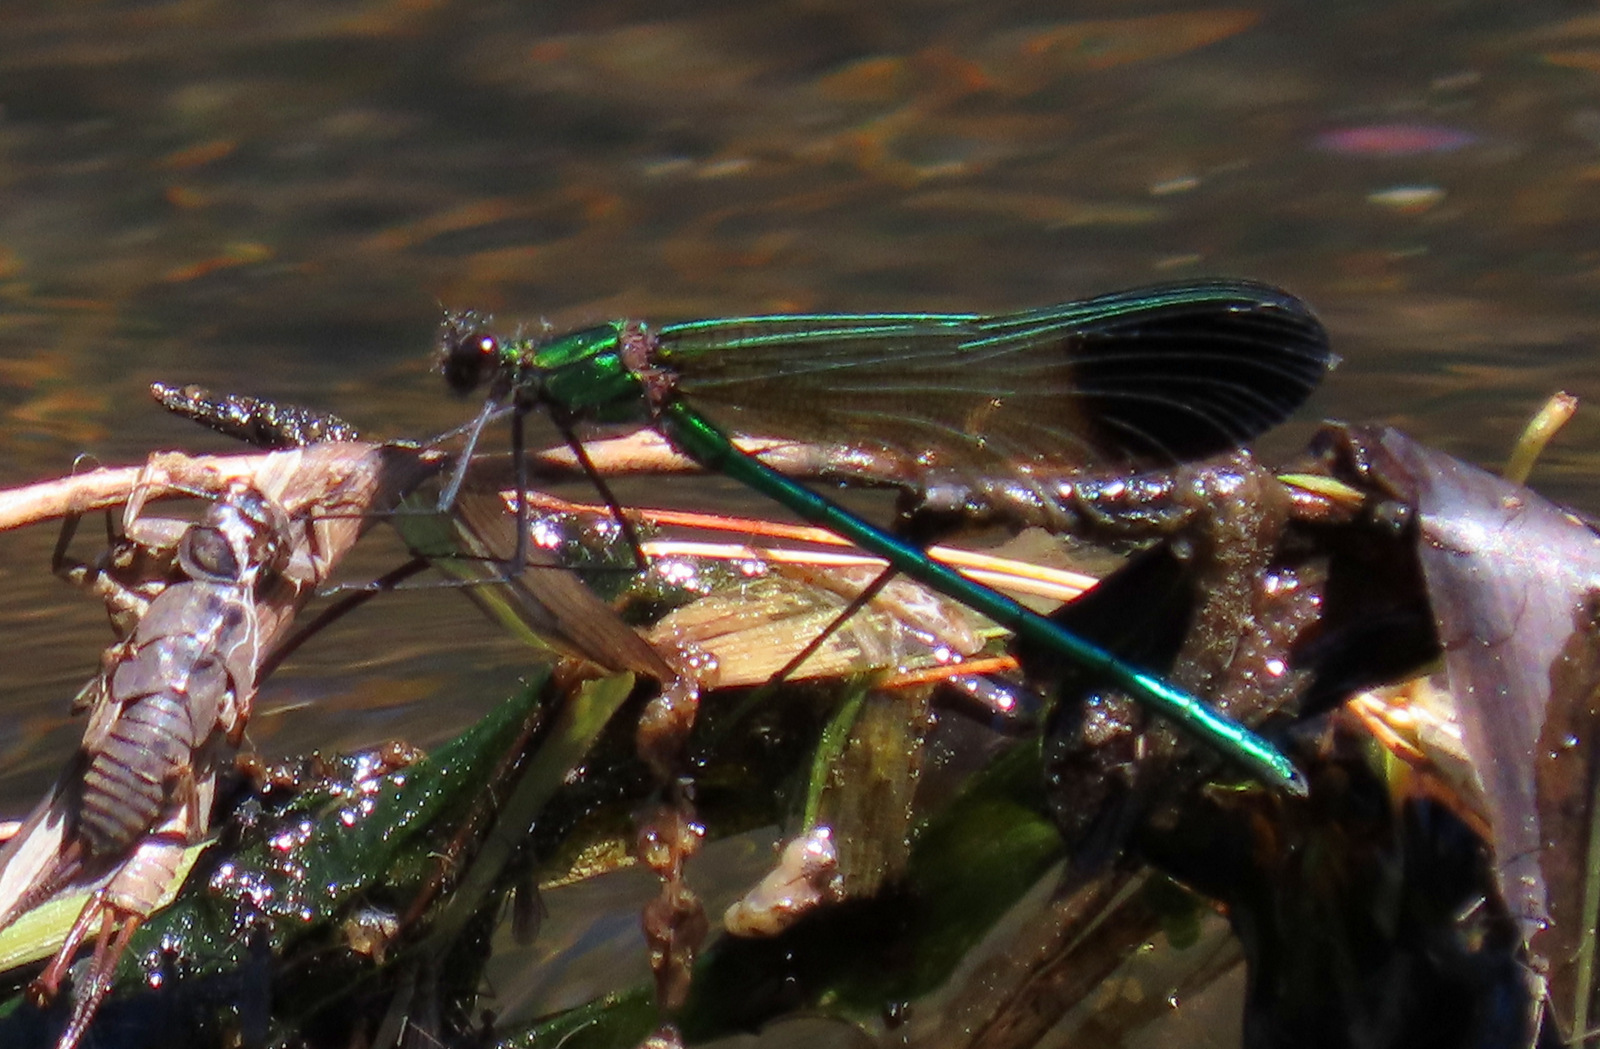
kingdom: Animalia
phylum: Arthropoda
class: Insecta
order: Odonata
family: Calopterygidae
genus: Calopteryx
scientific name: Calopteryx aequabilis
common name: River jewelwing
